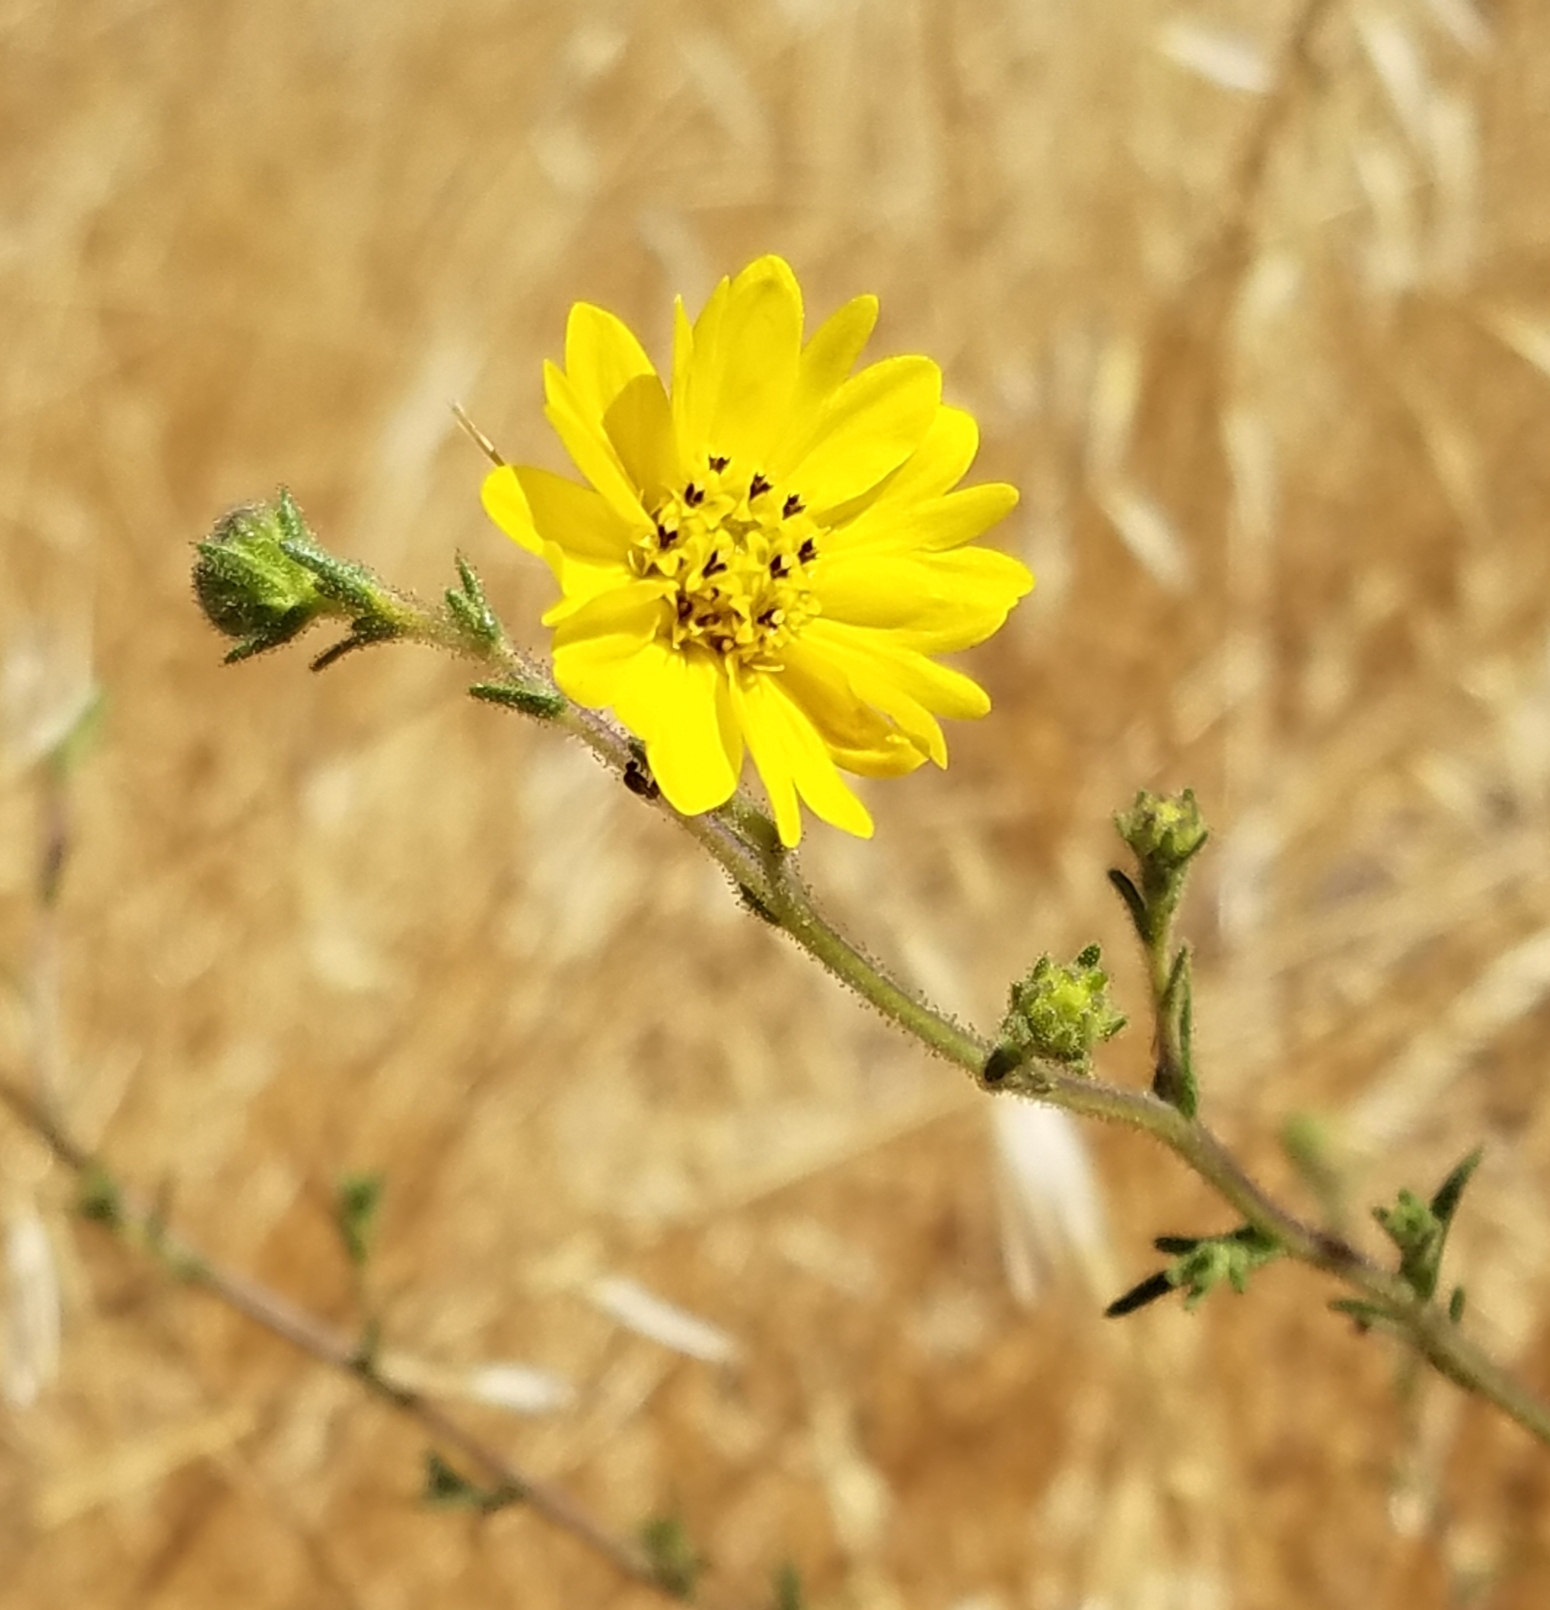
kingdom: Plantae
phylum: Tracheophyta
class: Magnoliopsida
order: Asterales
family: Asteraceae
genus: Hemizonia
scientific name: Hemizonia congesta
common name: Hayfield tarweed
